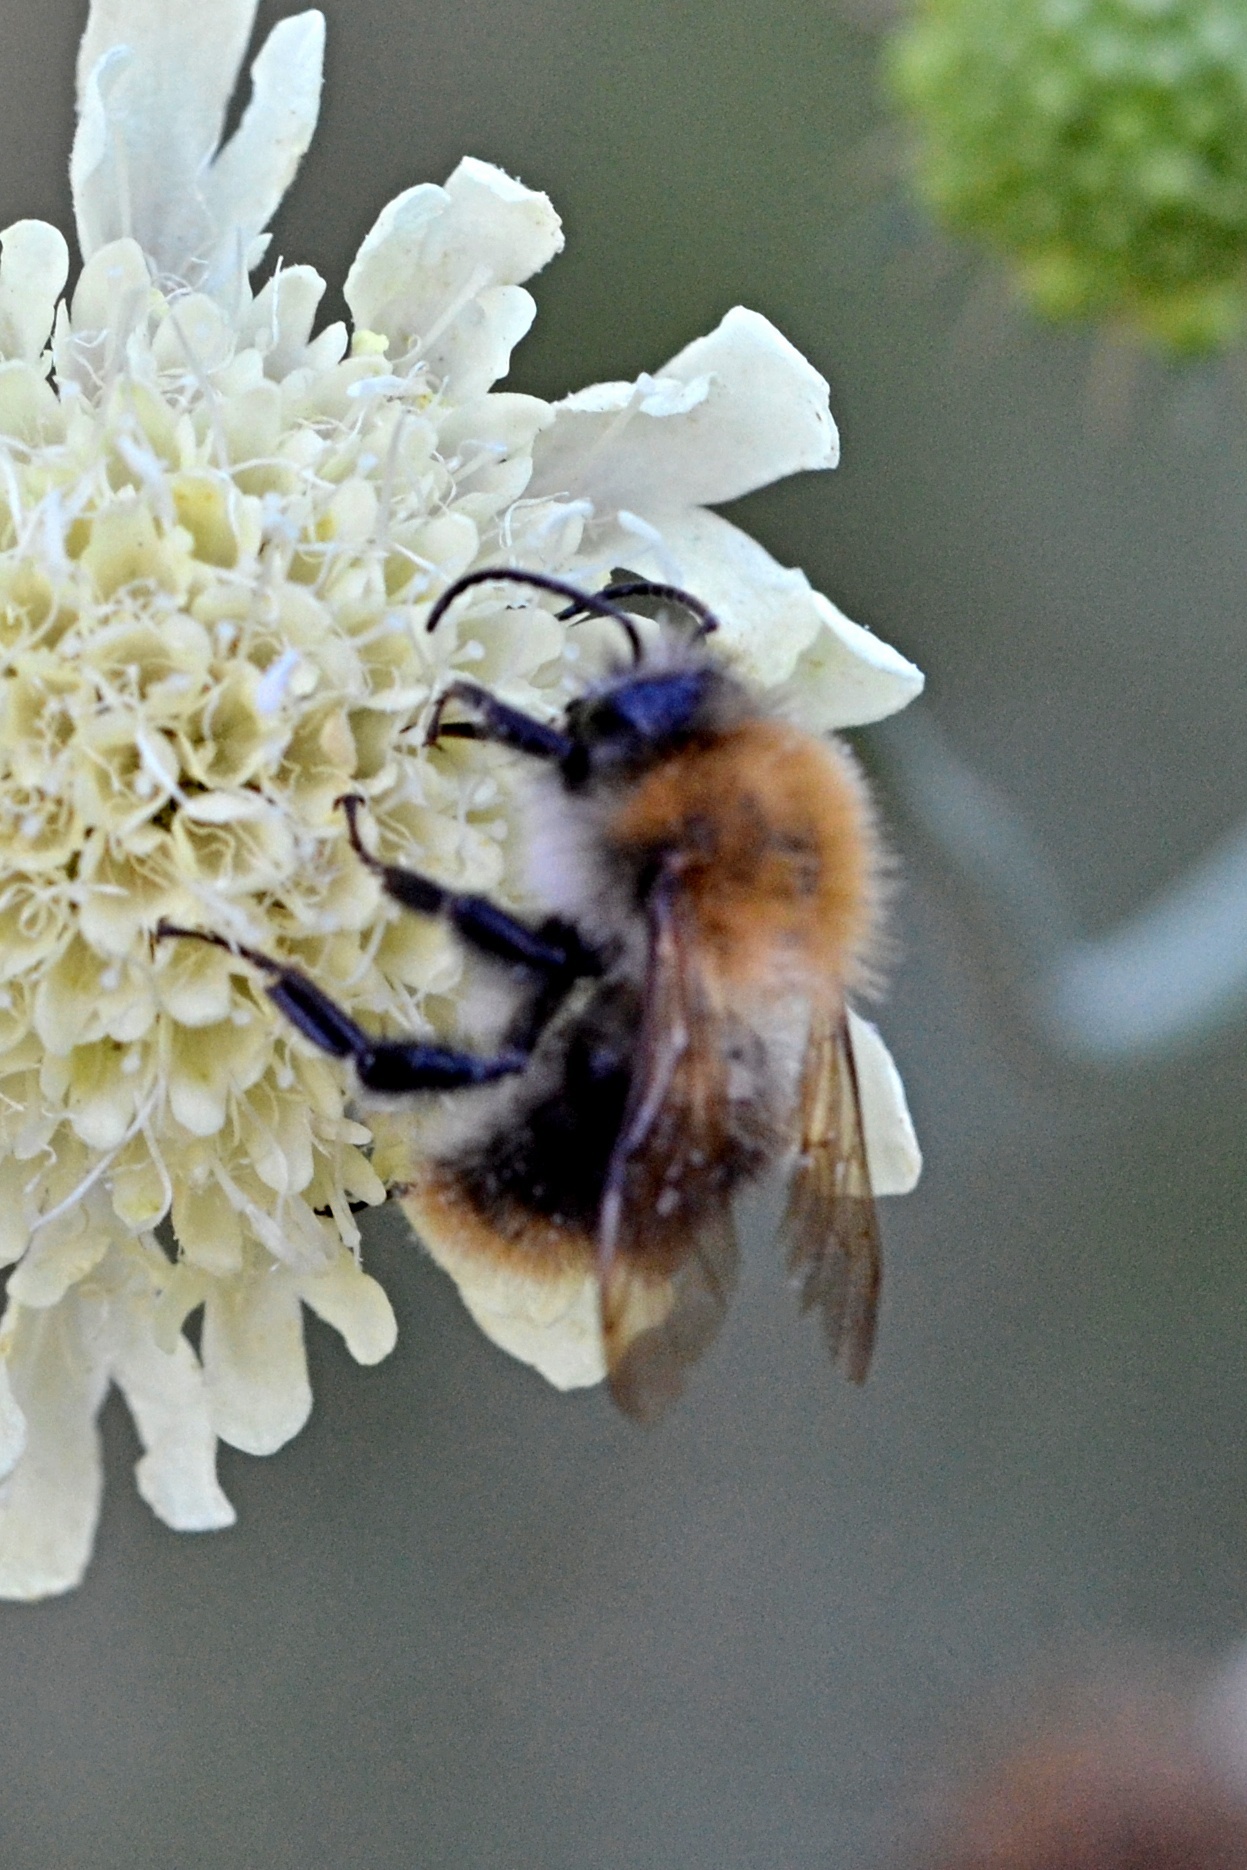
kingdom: Animalia
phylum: Arthropoda
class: Insecta
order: Hymenoptera
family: Apidae
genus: Bombus
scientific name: Bombus pascuorum
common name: Common carder bee
